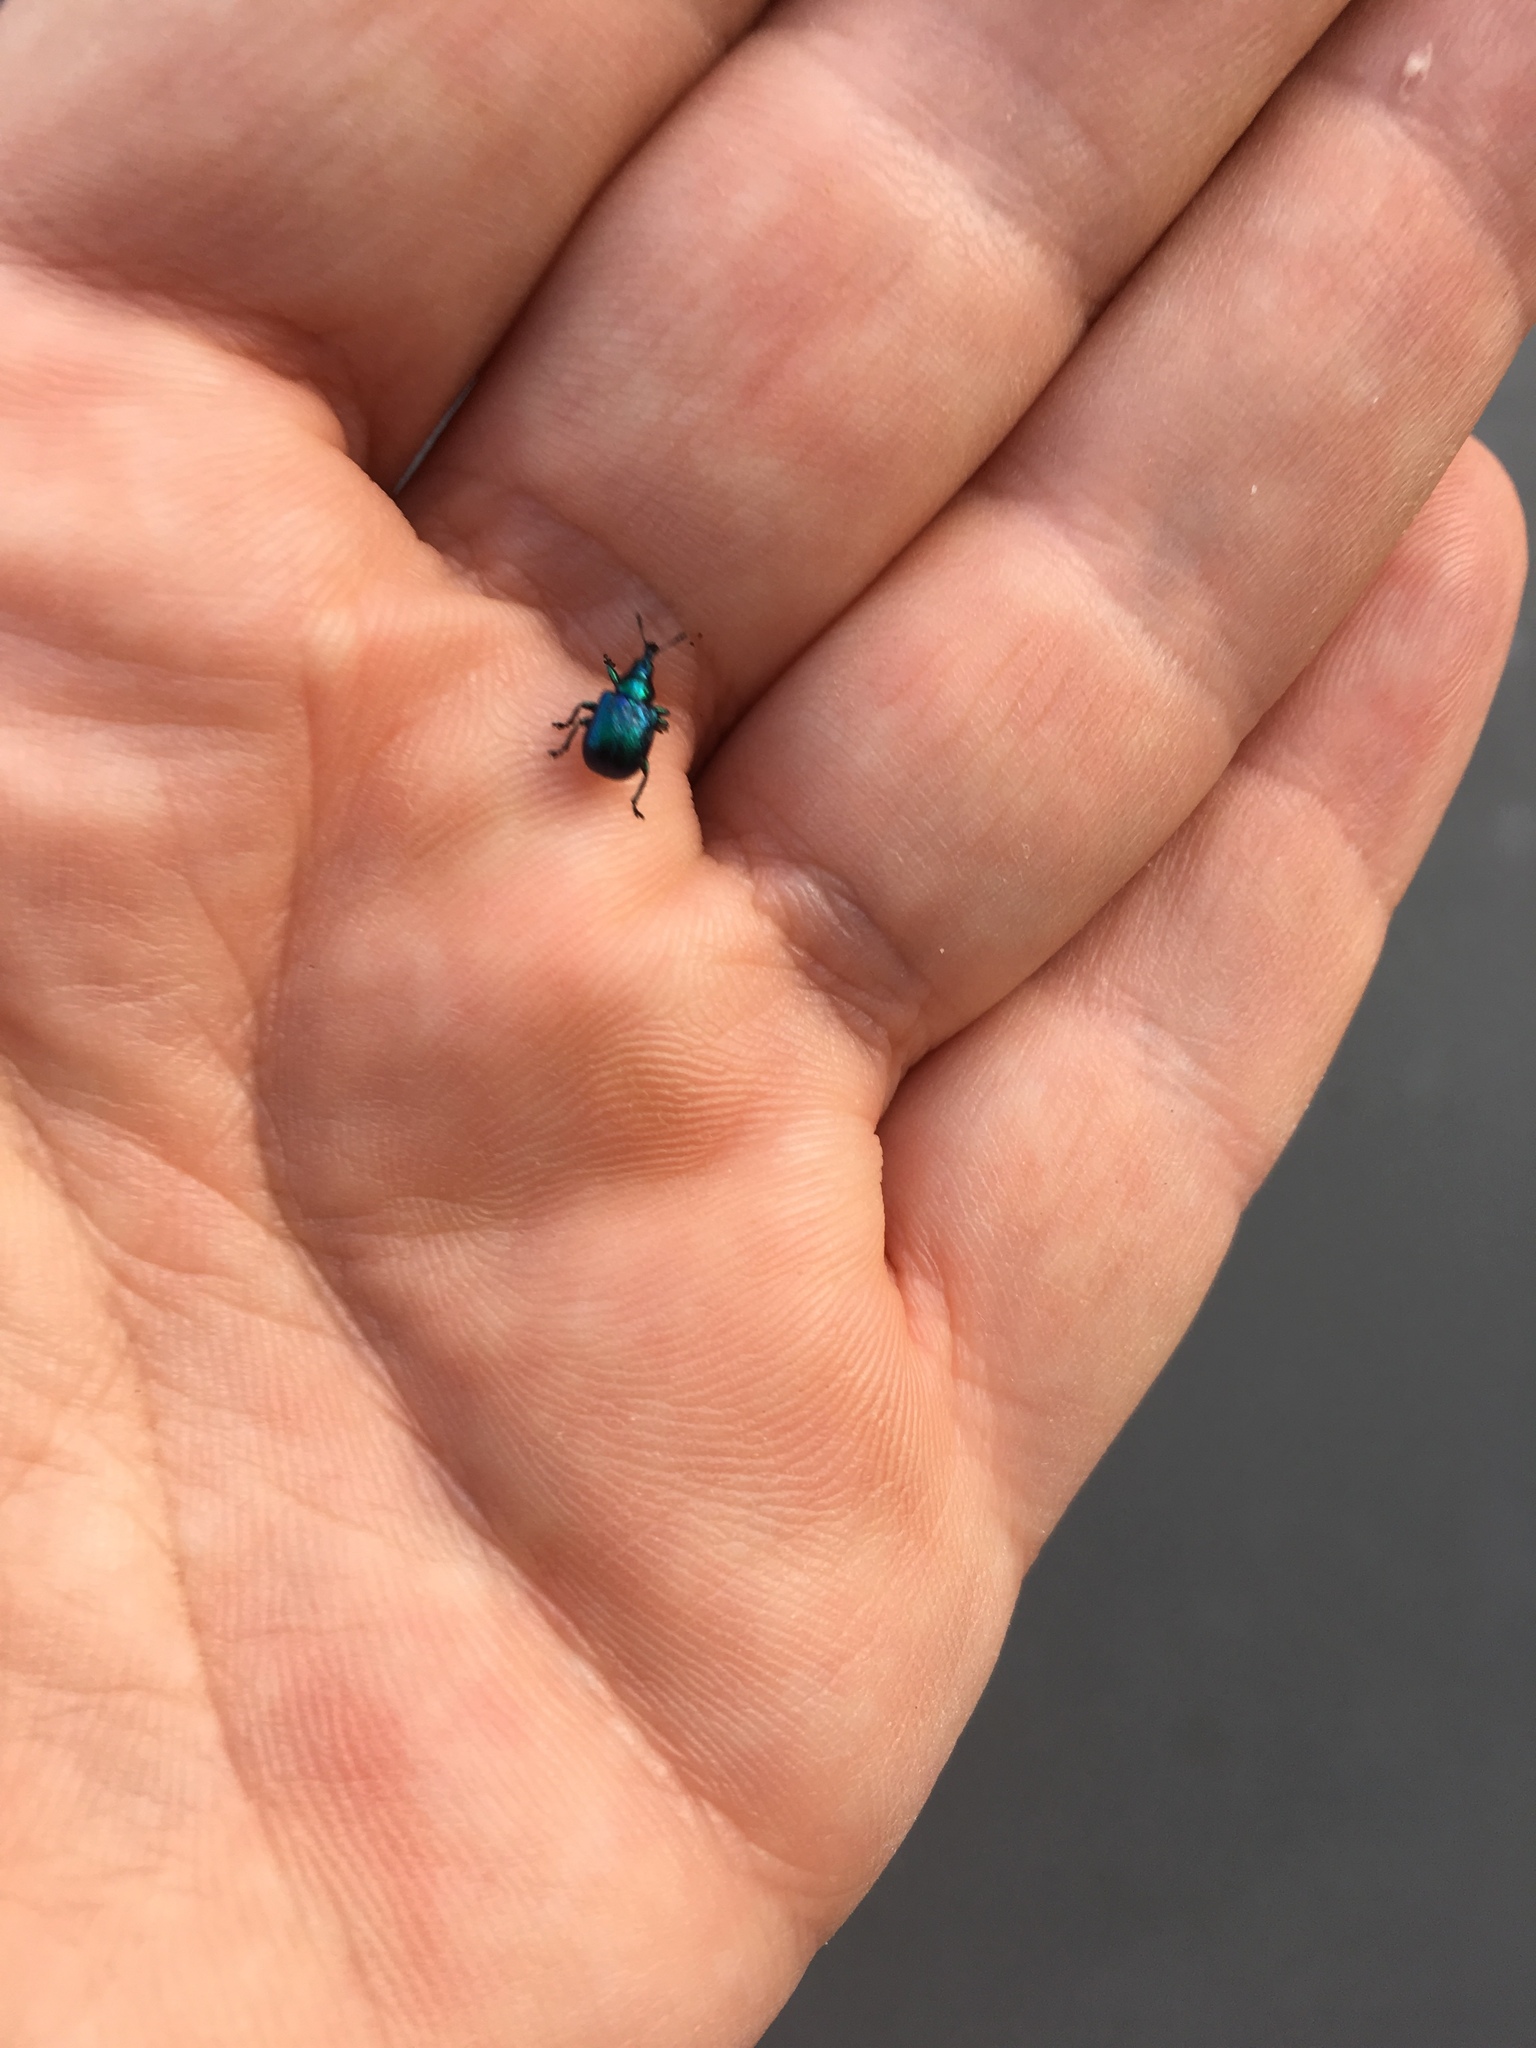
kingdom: Animalia
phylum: Arthropoda
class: Insecta
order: Coleoptera
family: Attelabidae
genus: Byctiscus
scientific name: Byctiscus betulae
